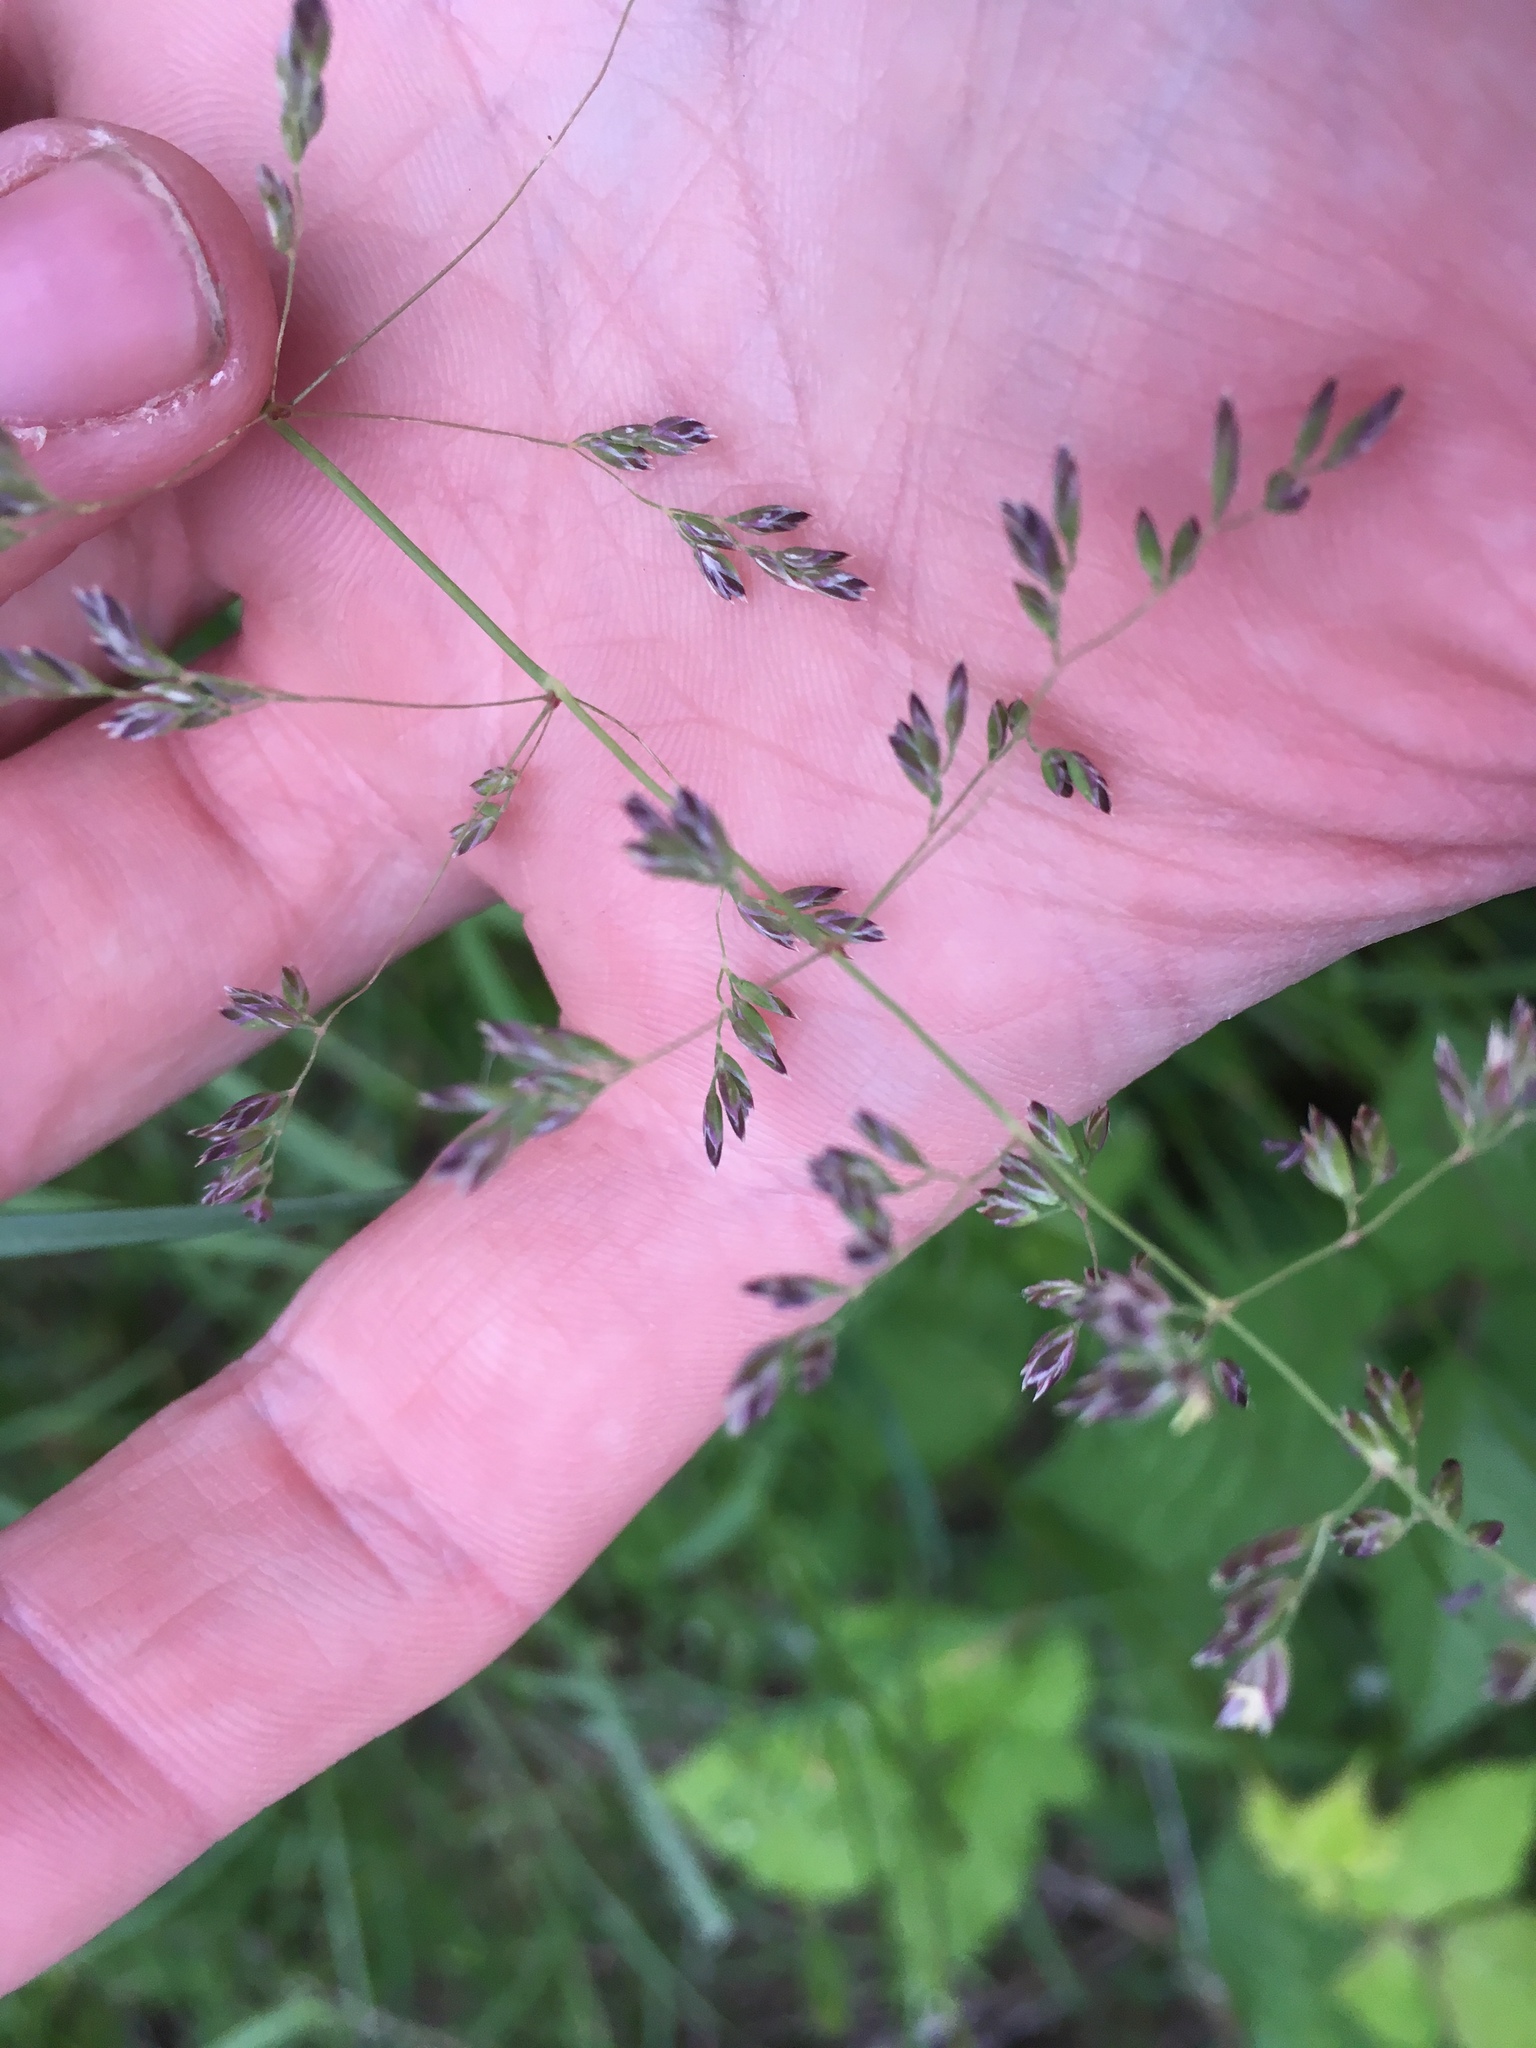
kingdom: Plantae
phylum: Tracheophyta
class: Liliopsida
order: Poales
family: Poaceae
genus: Poa
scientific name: Poa annua
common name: Annual bluegrass
